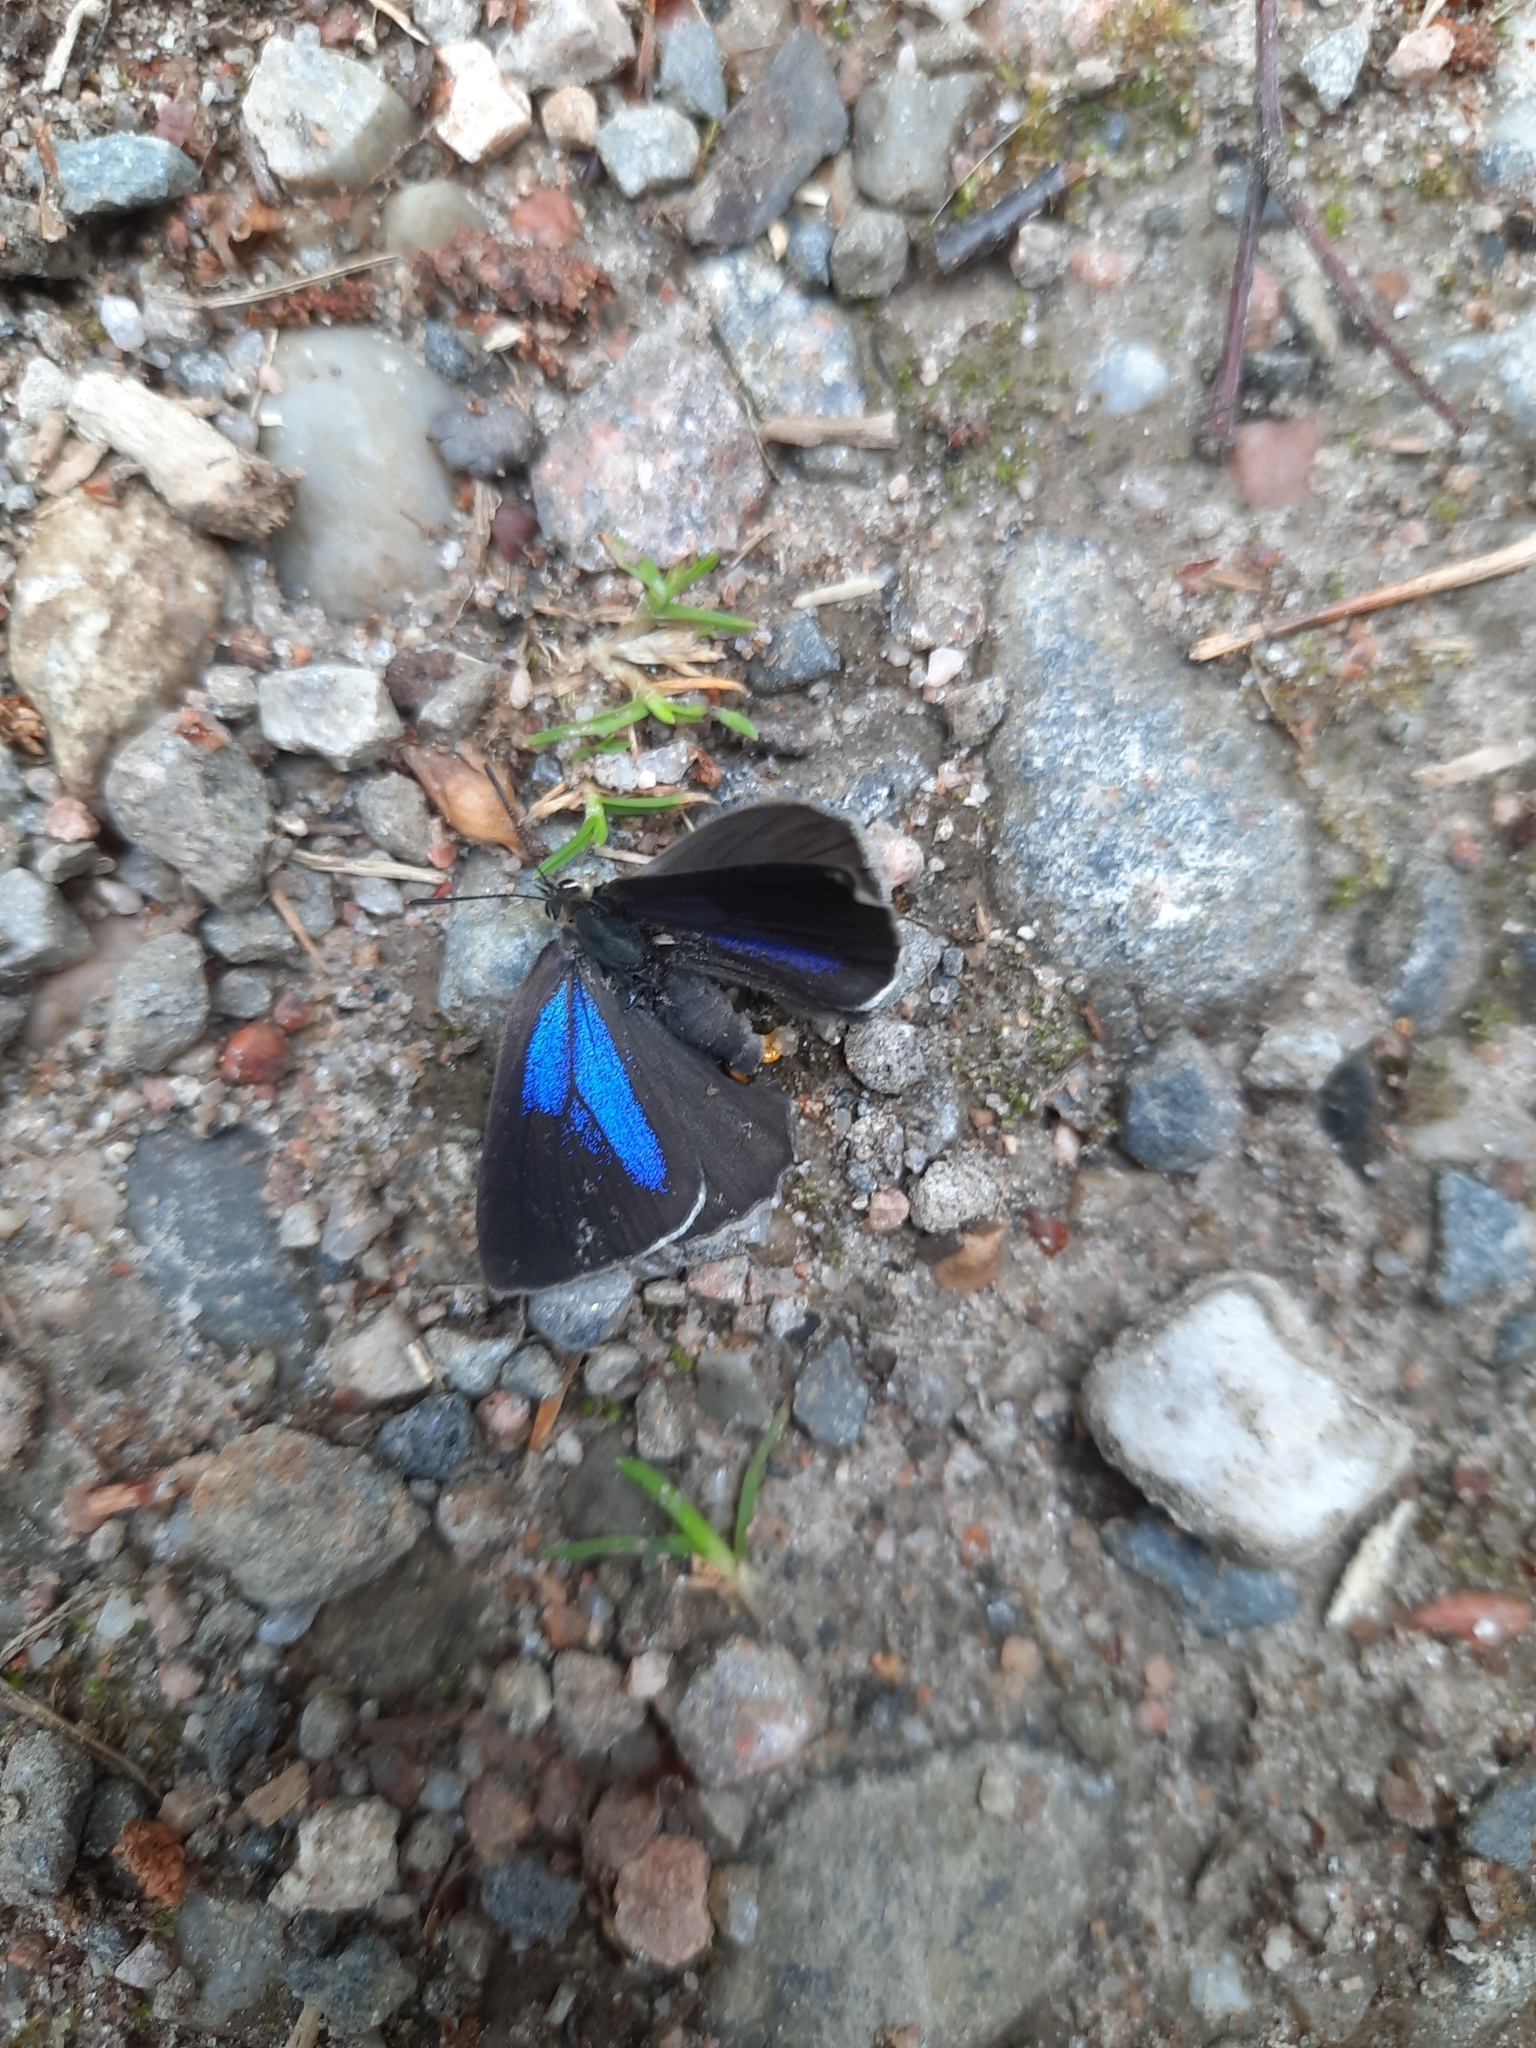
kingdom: Animalia
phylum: Arthropoda
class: Insecta
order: Lepidoptera
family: Lycaenidae
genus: Quercusia
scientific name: Quercusia quercus
